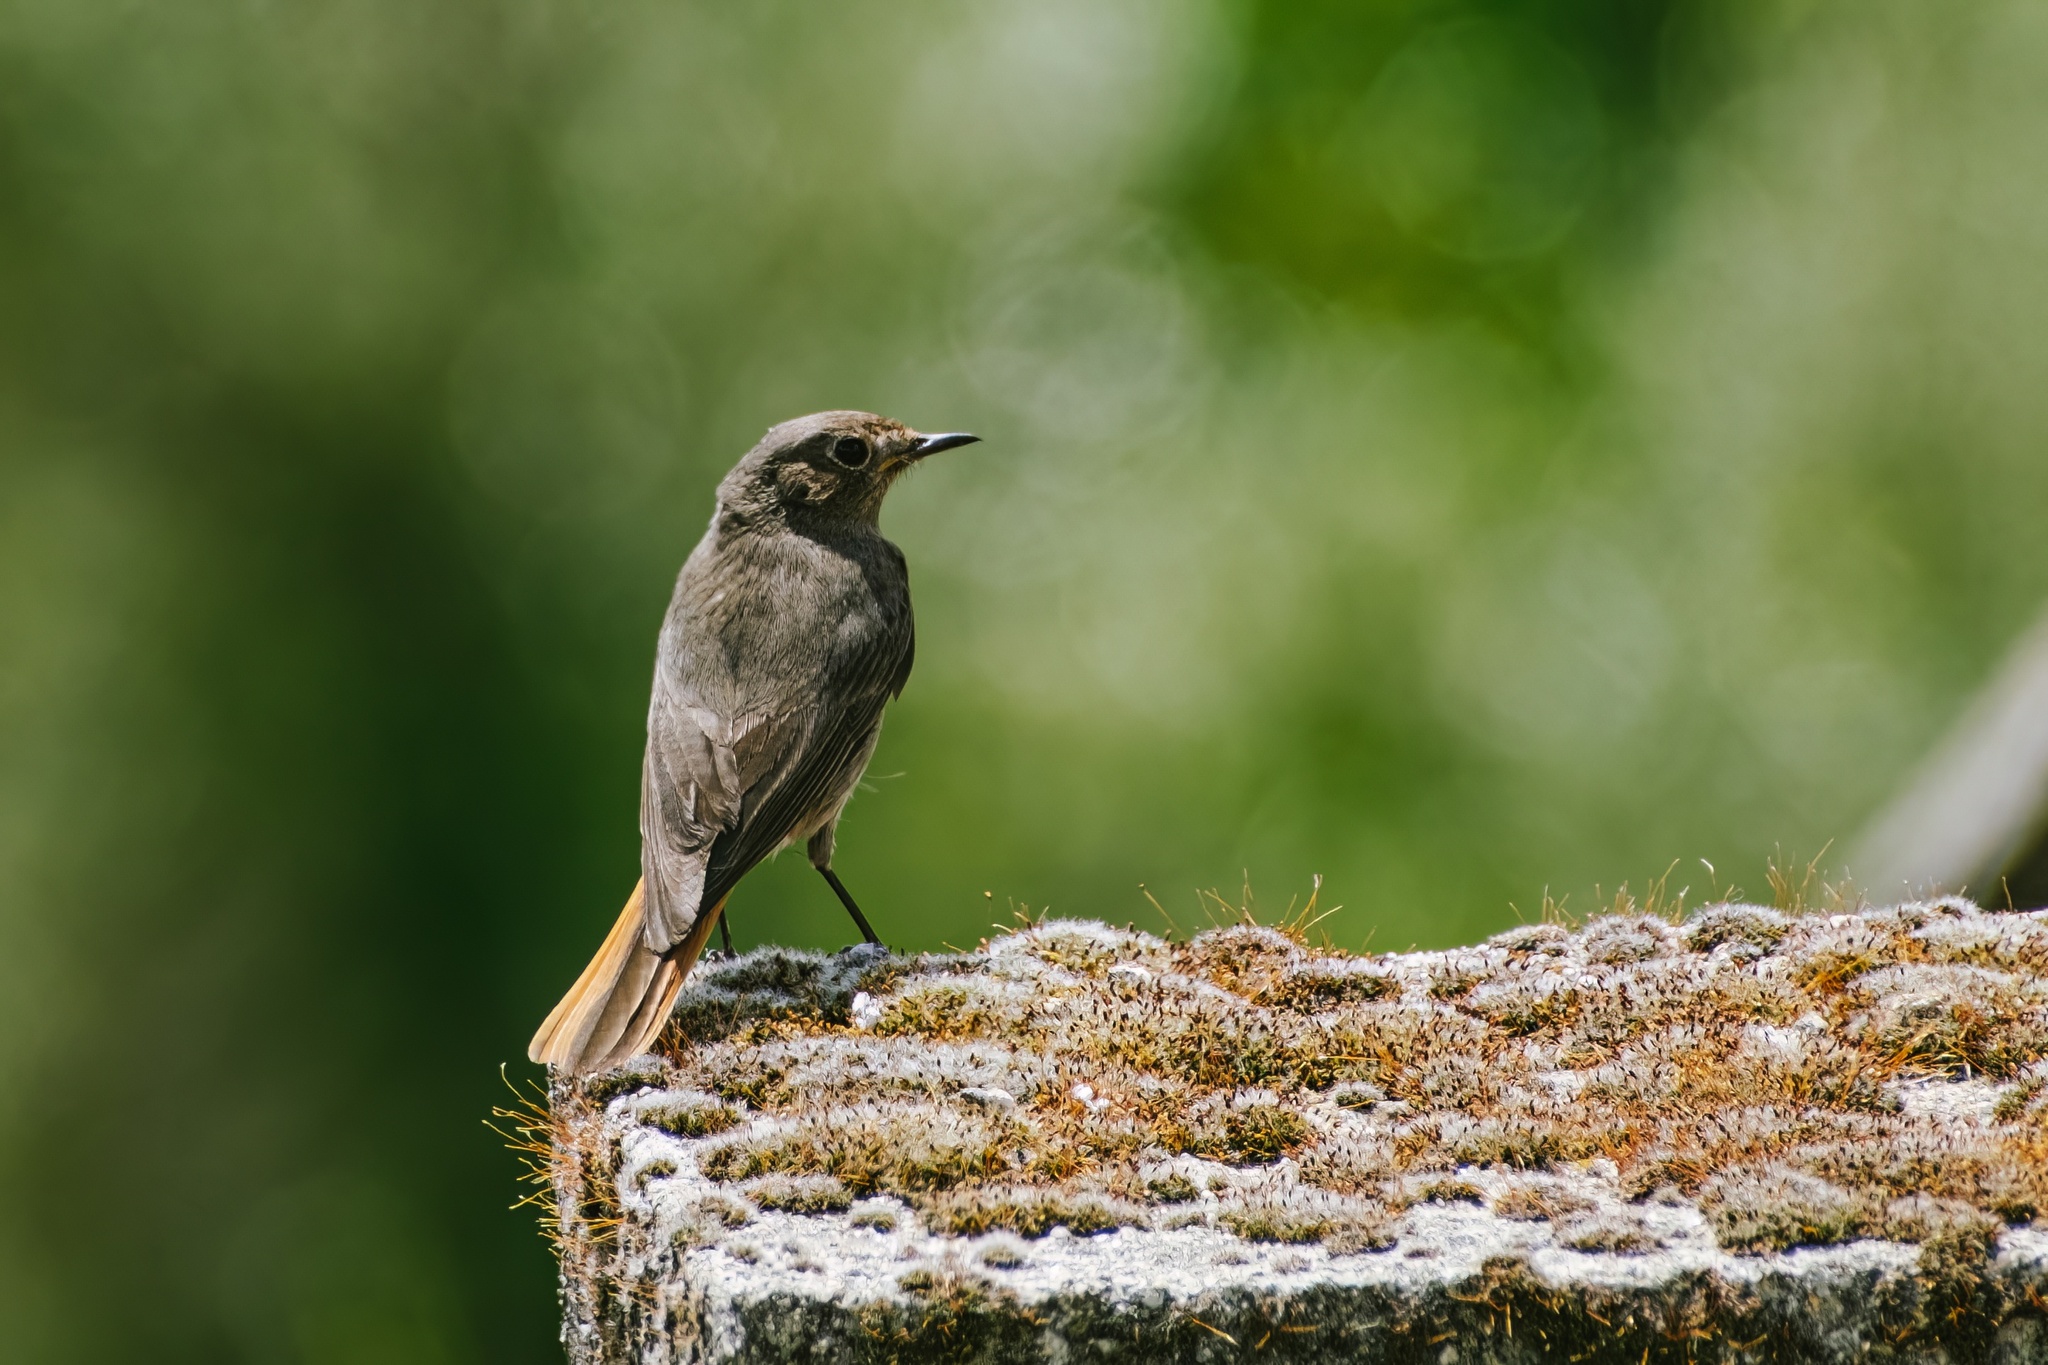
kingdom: Animalia
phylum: Chordata
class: Aves
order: Passeriformes
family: Muscicapidae
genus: Phoenicurus
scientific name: Phoenicurus ochruros
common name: Black redstart
